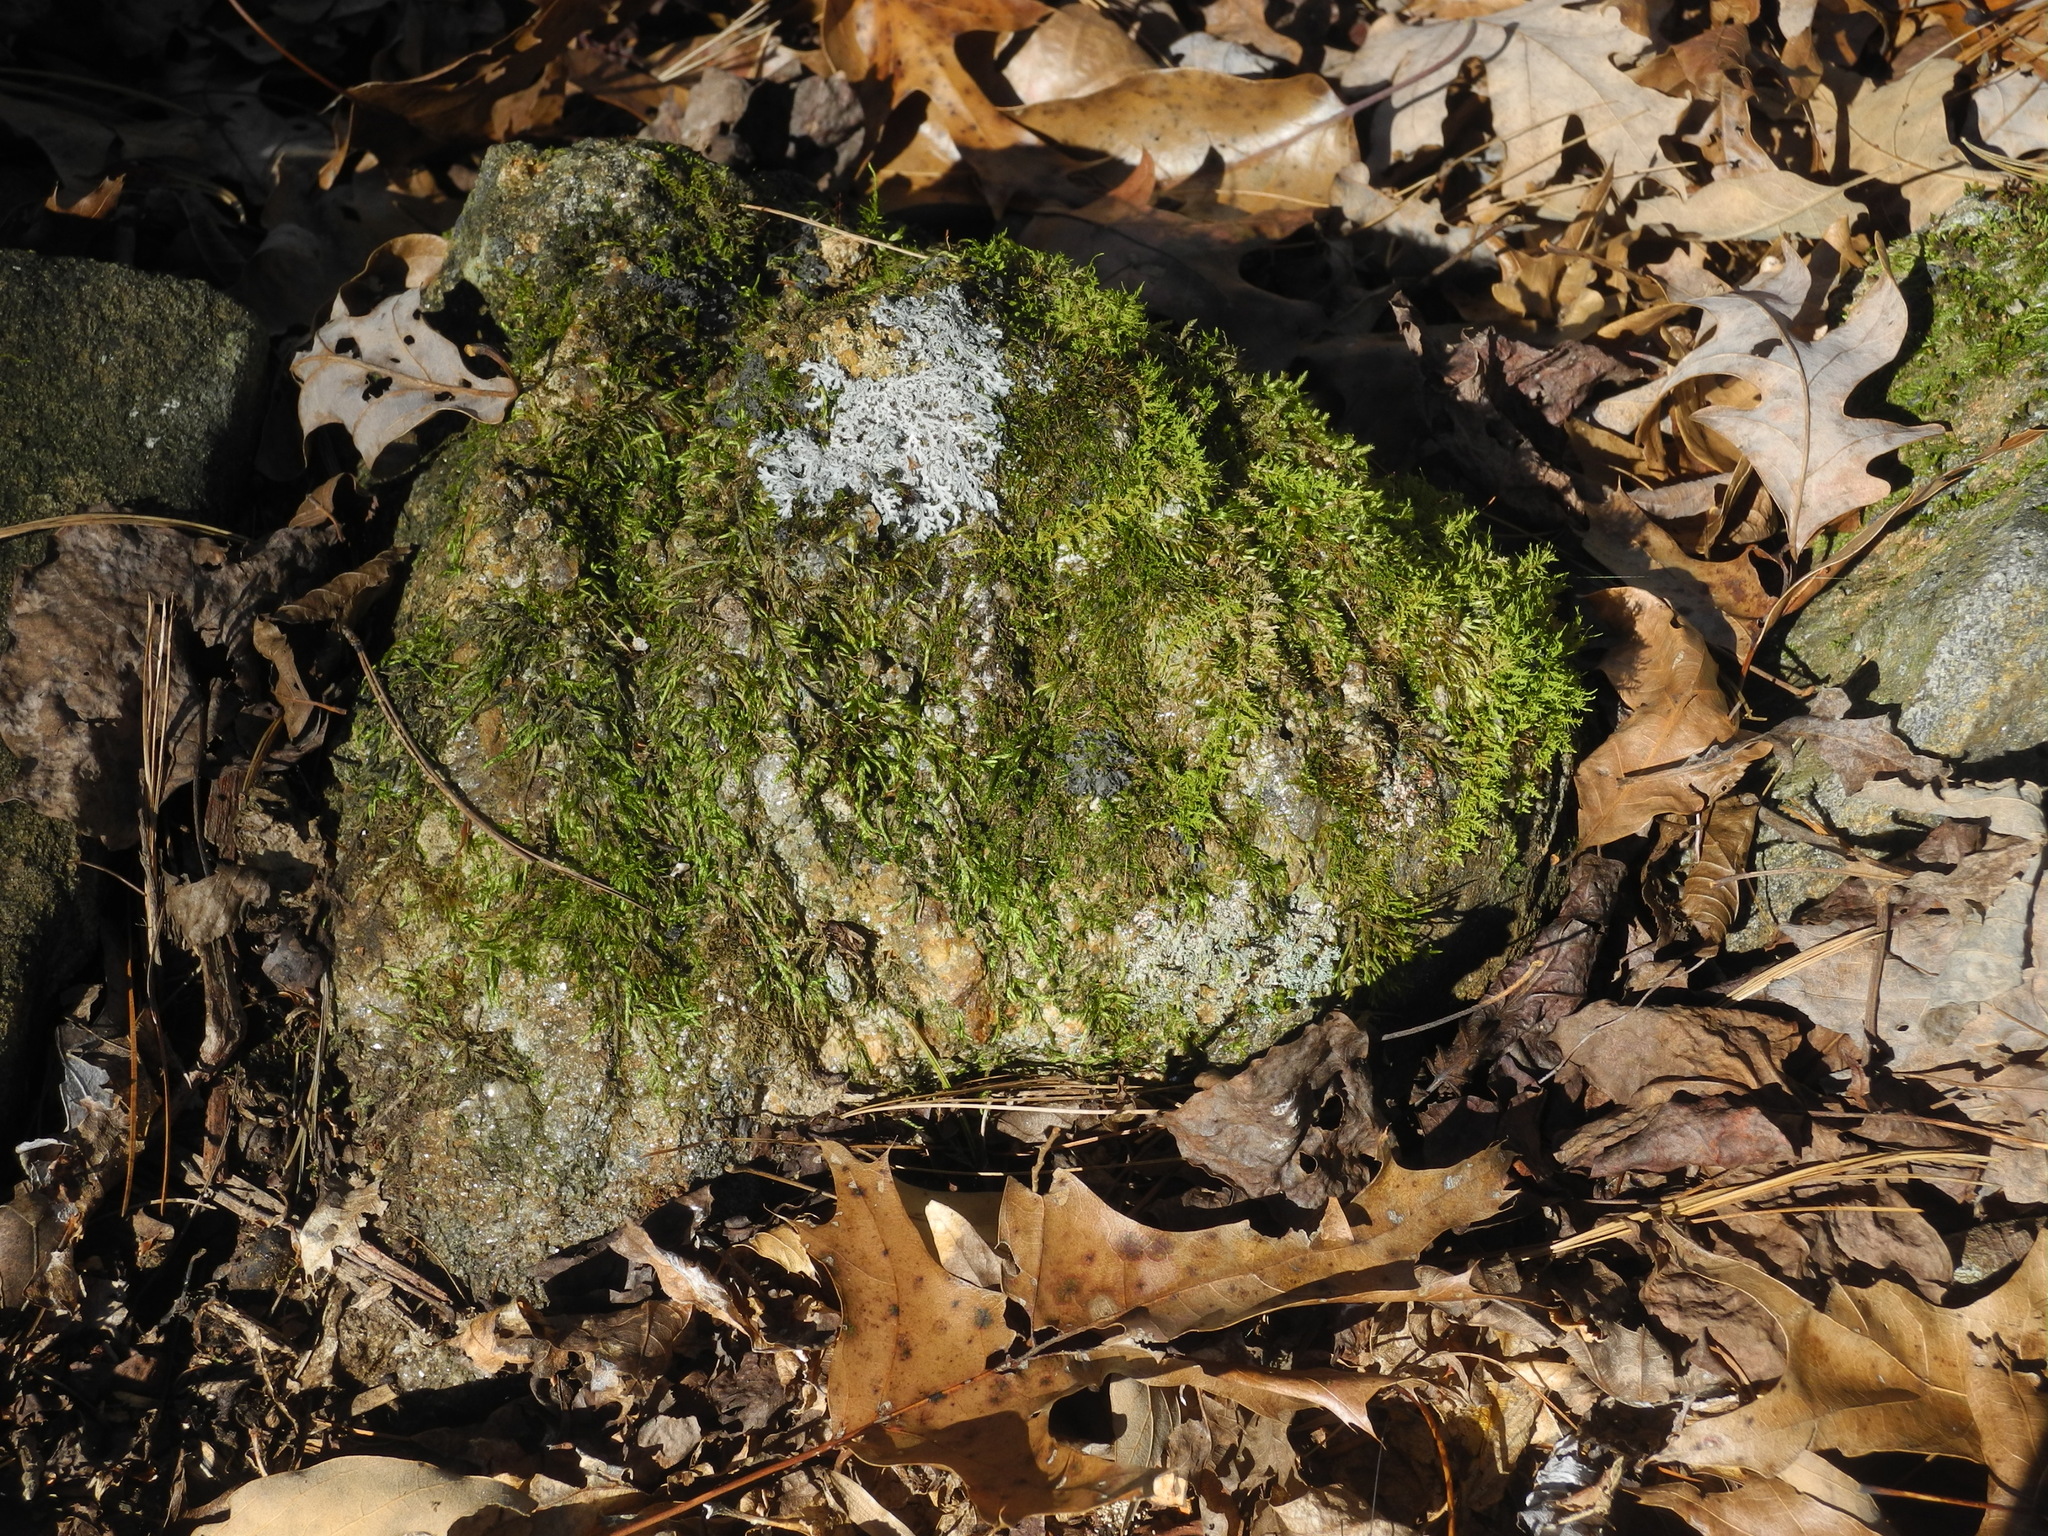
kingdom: Fungi
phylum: Ascomycota
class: Lecanoromycetes
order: Caliciales
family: Physciaceae
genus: Heterodermia
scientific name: Heterodermia speciosa
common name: Powdered fringe lichen
